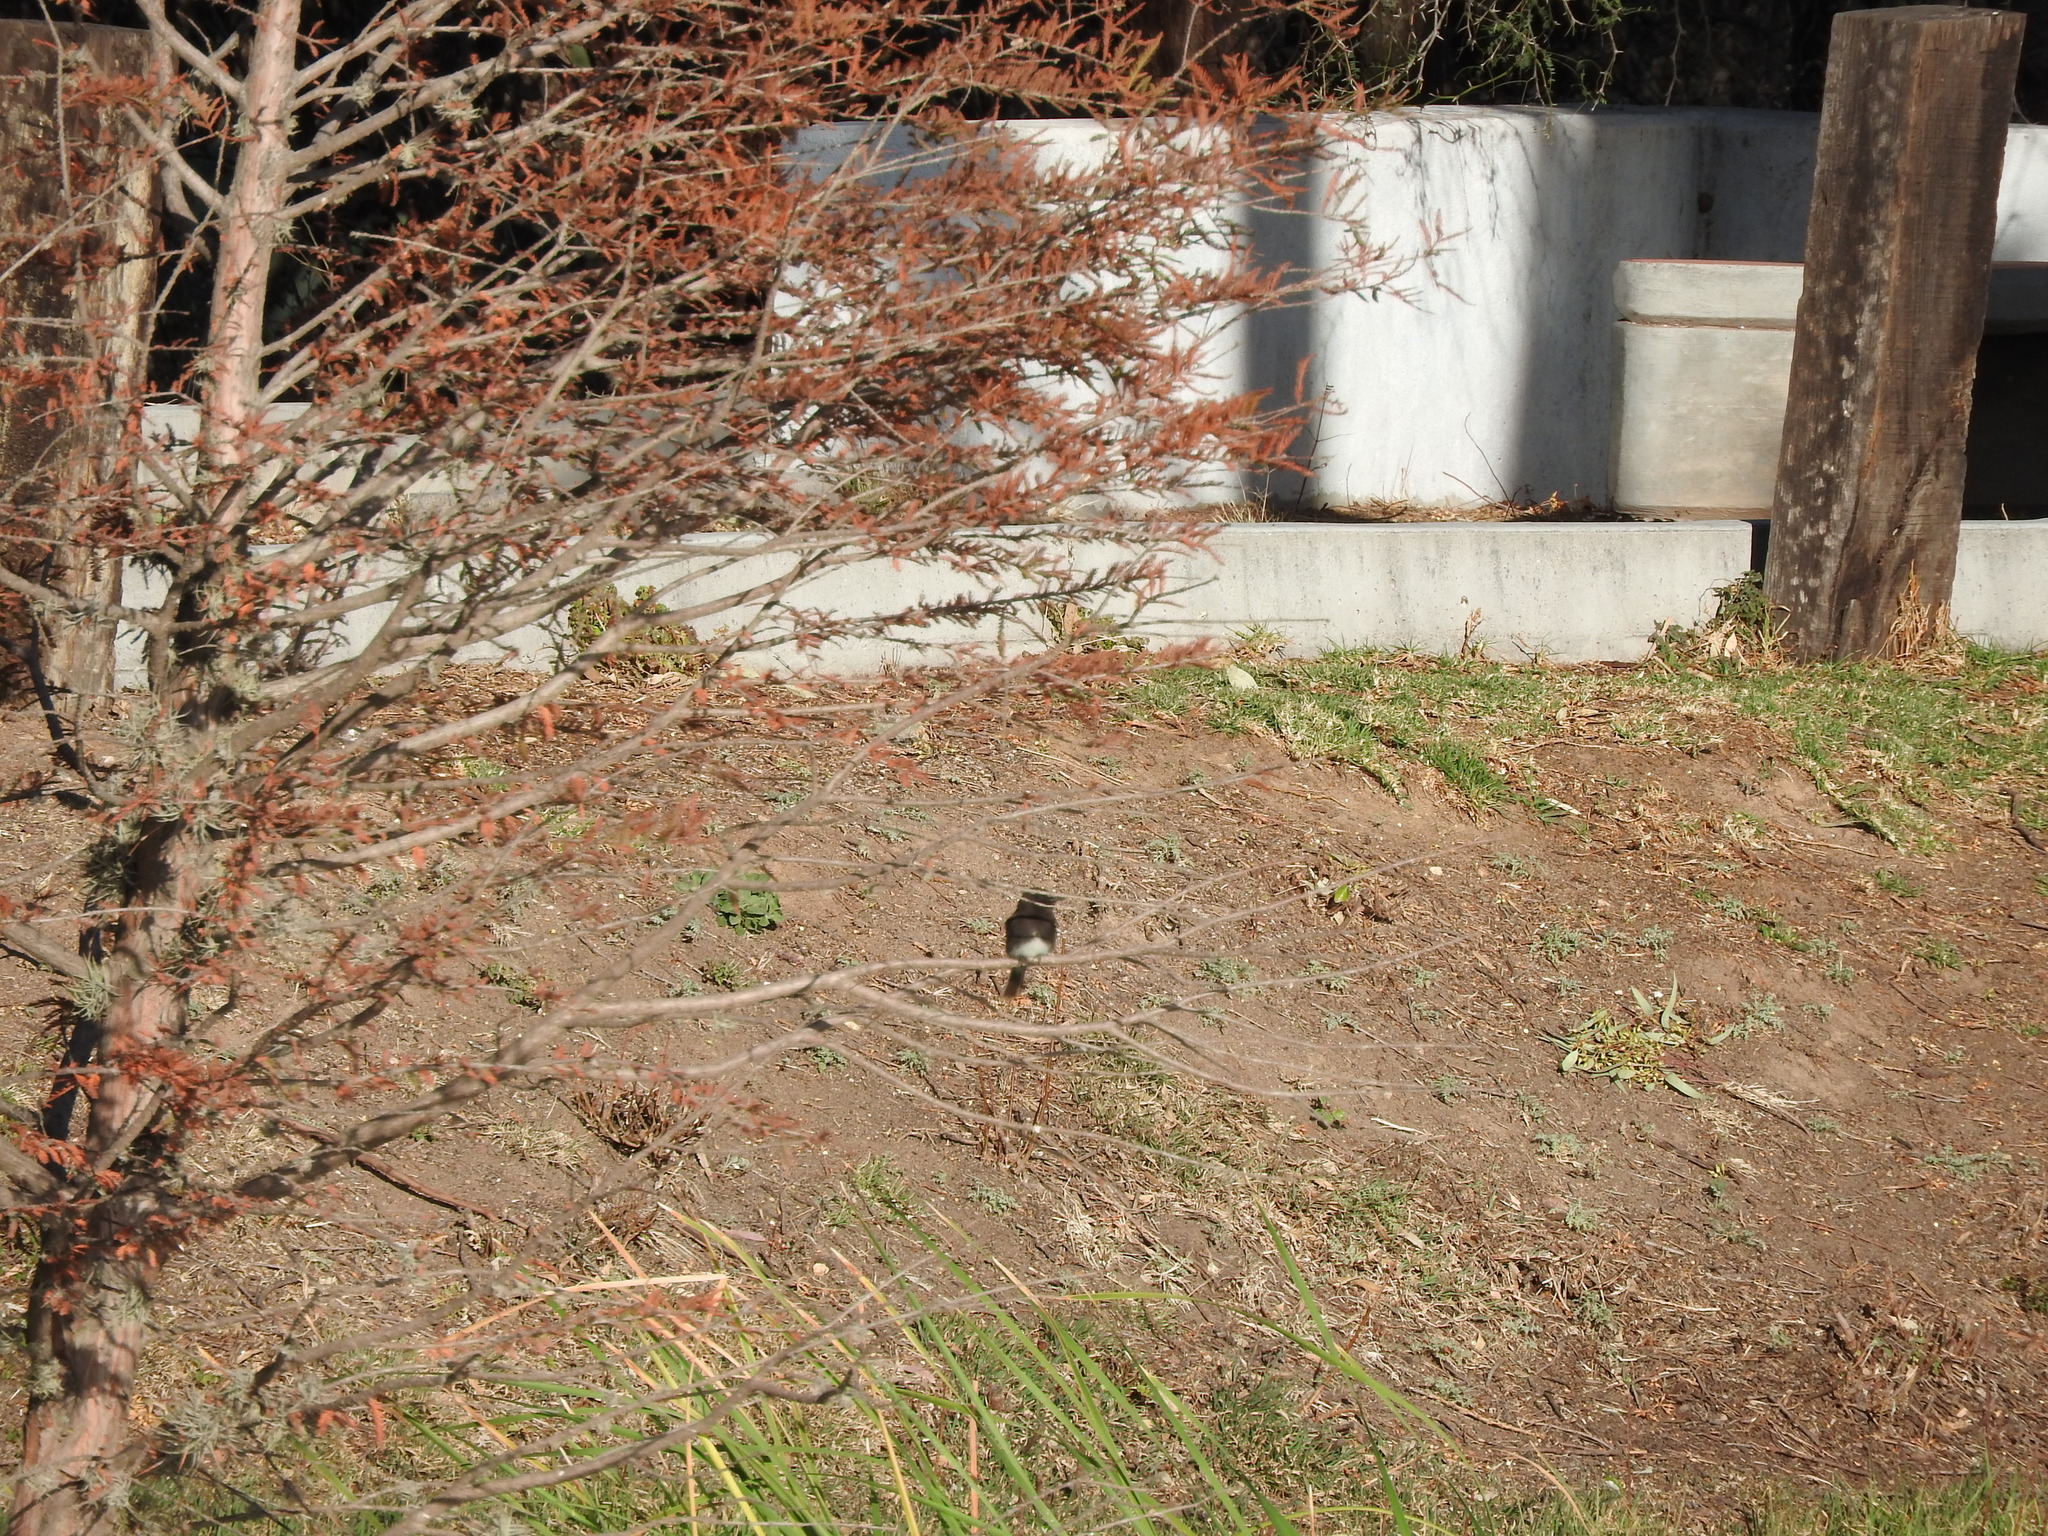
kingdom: Animalia
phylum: Chordata
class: Aves
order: Passeriformes
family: Tyrannidae
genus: Sayornis
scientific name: Sayornis nigricans
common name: Black phoebe
